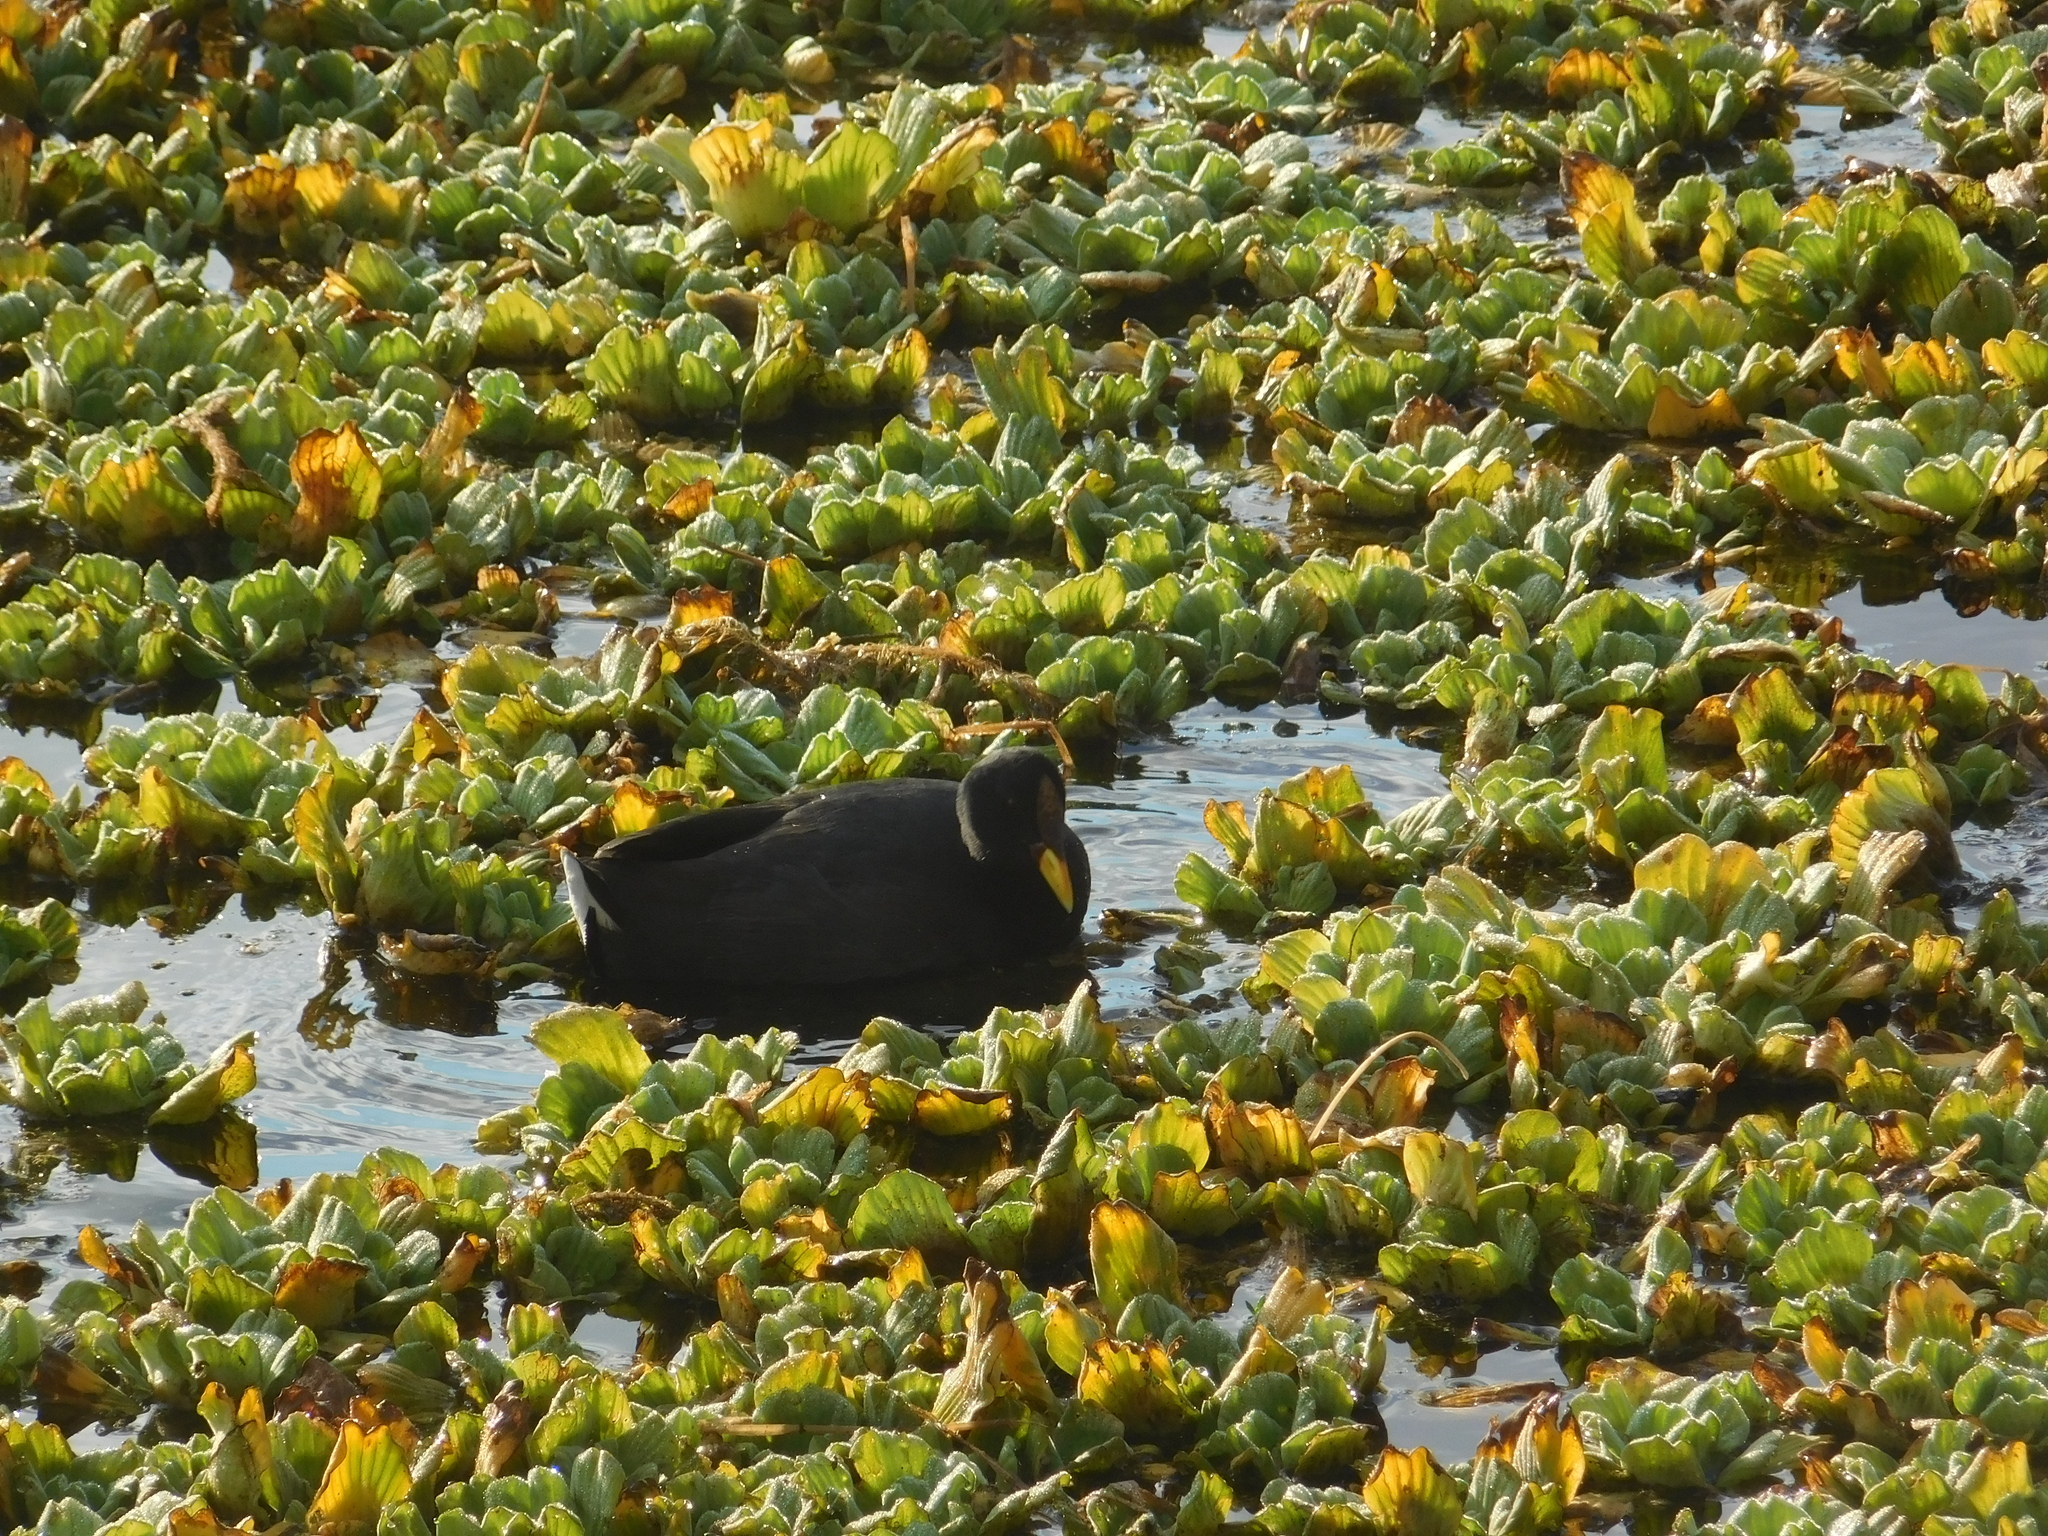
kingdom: Animalia
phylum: Chordata
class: Aves
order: Gruiformes
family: Rallidae
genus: Fulica
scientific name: Fulica rufifrons
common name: Red-fronted coot
